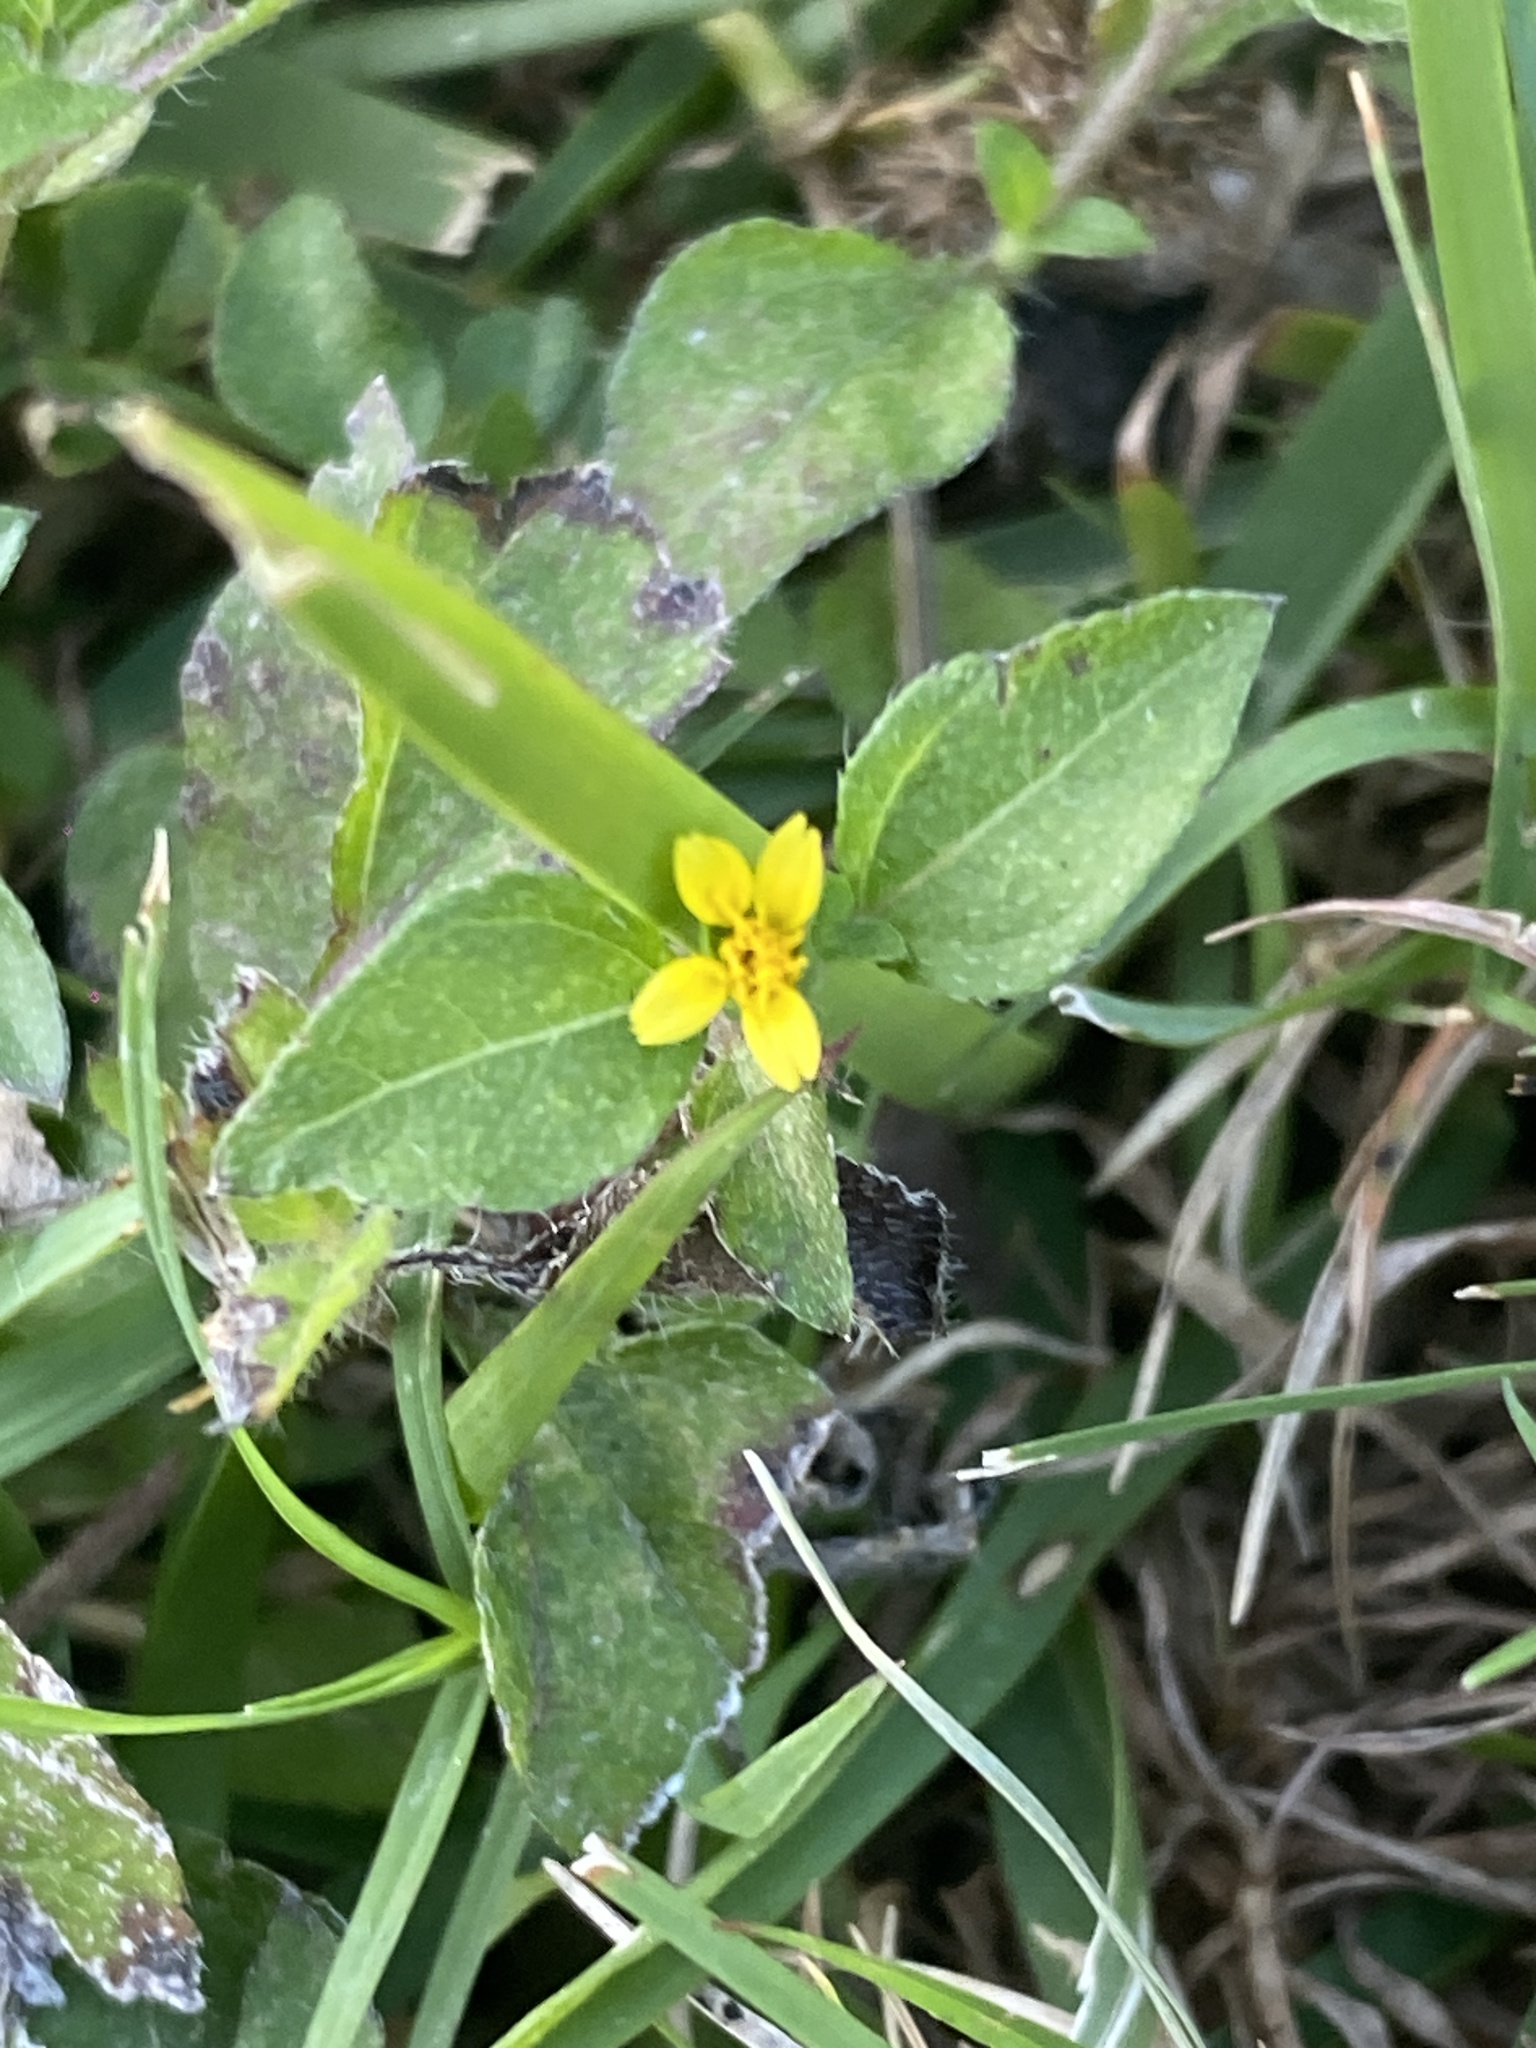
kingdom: Plantae
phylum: Tracheophyta
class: Magnoliopsida
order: Asterales
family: Asteraceae
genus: Calyptocarpus
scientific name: Calyptocarpus vialis
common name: Straggler daisy
